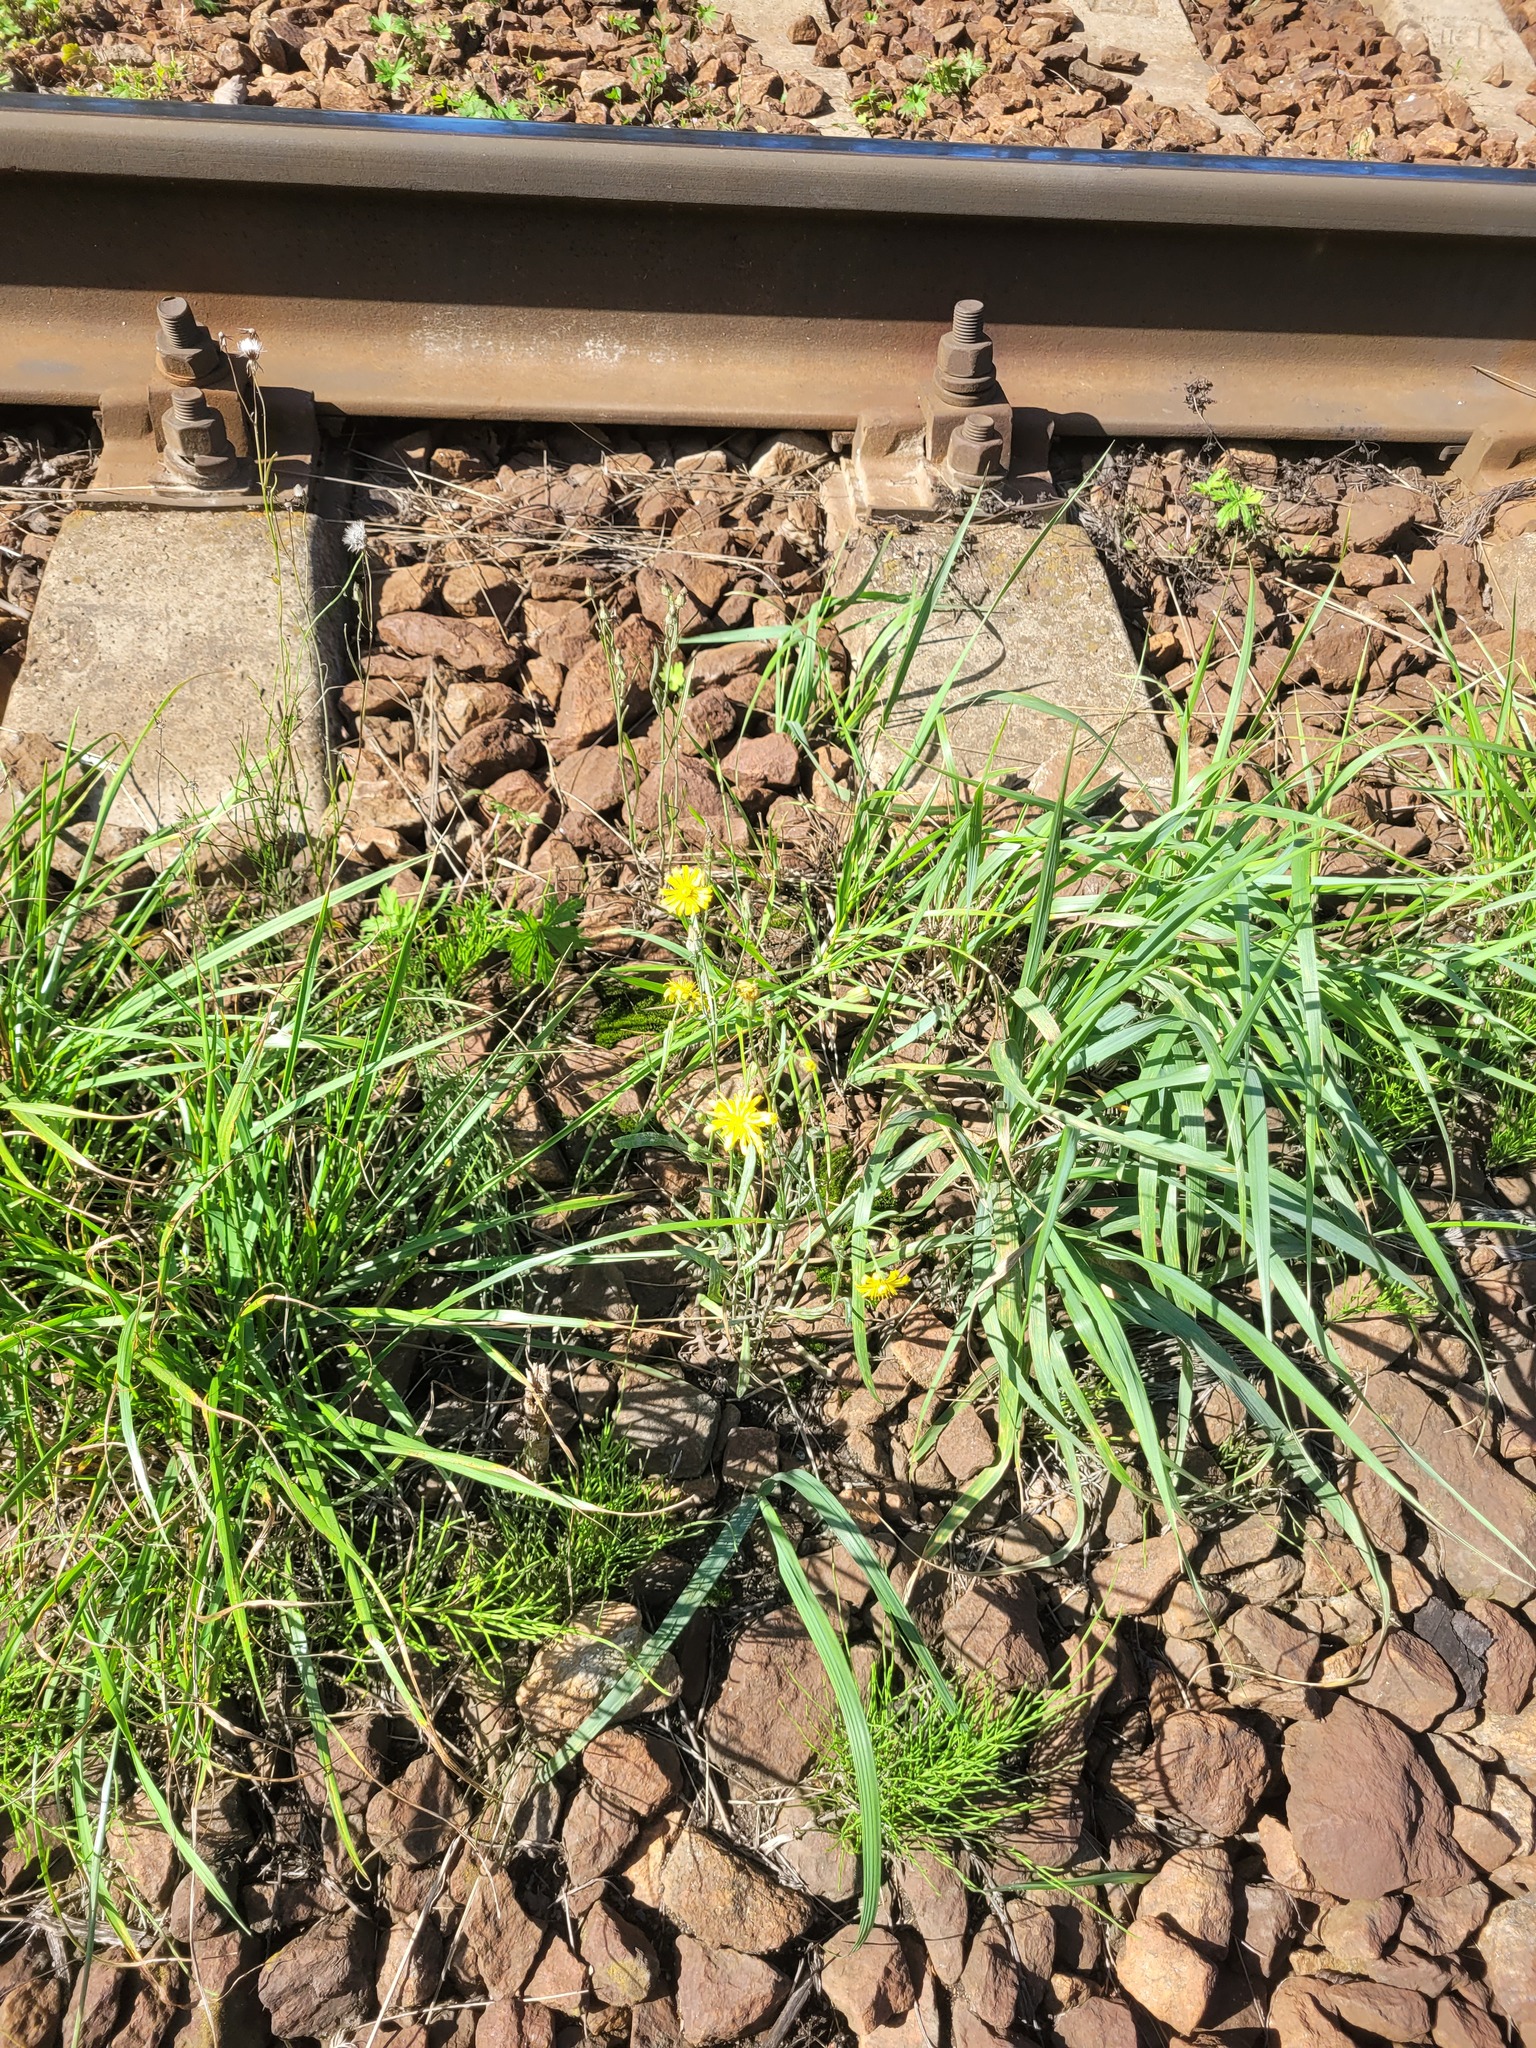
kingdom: Plantae
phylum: Tracheophyta
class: Magnoliopsida
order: Asterales
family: Asteraceae
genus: Crepis
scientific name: Crepis tectorum
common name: Narrow-leaved hawk's-beard
